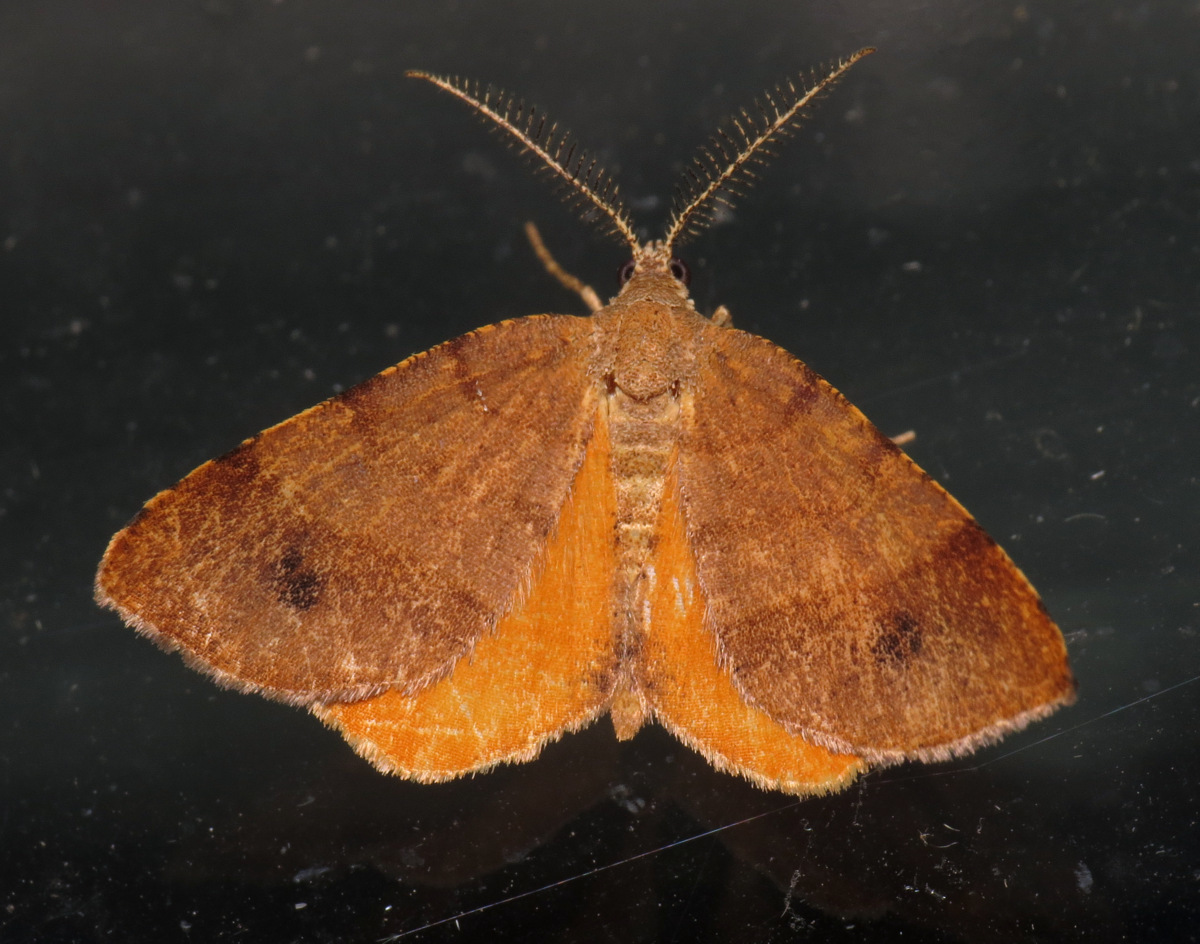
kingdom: Animalia
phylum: Arthropoda
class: Insecta
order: Lepidoptera
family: Geometridae
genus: Mellilla
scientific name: Mellilla xanthometata
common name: Orange wing moth
